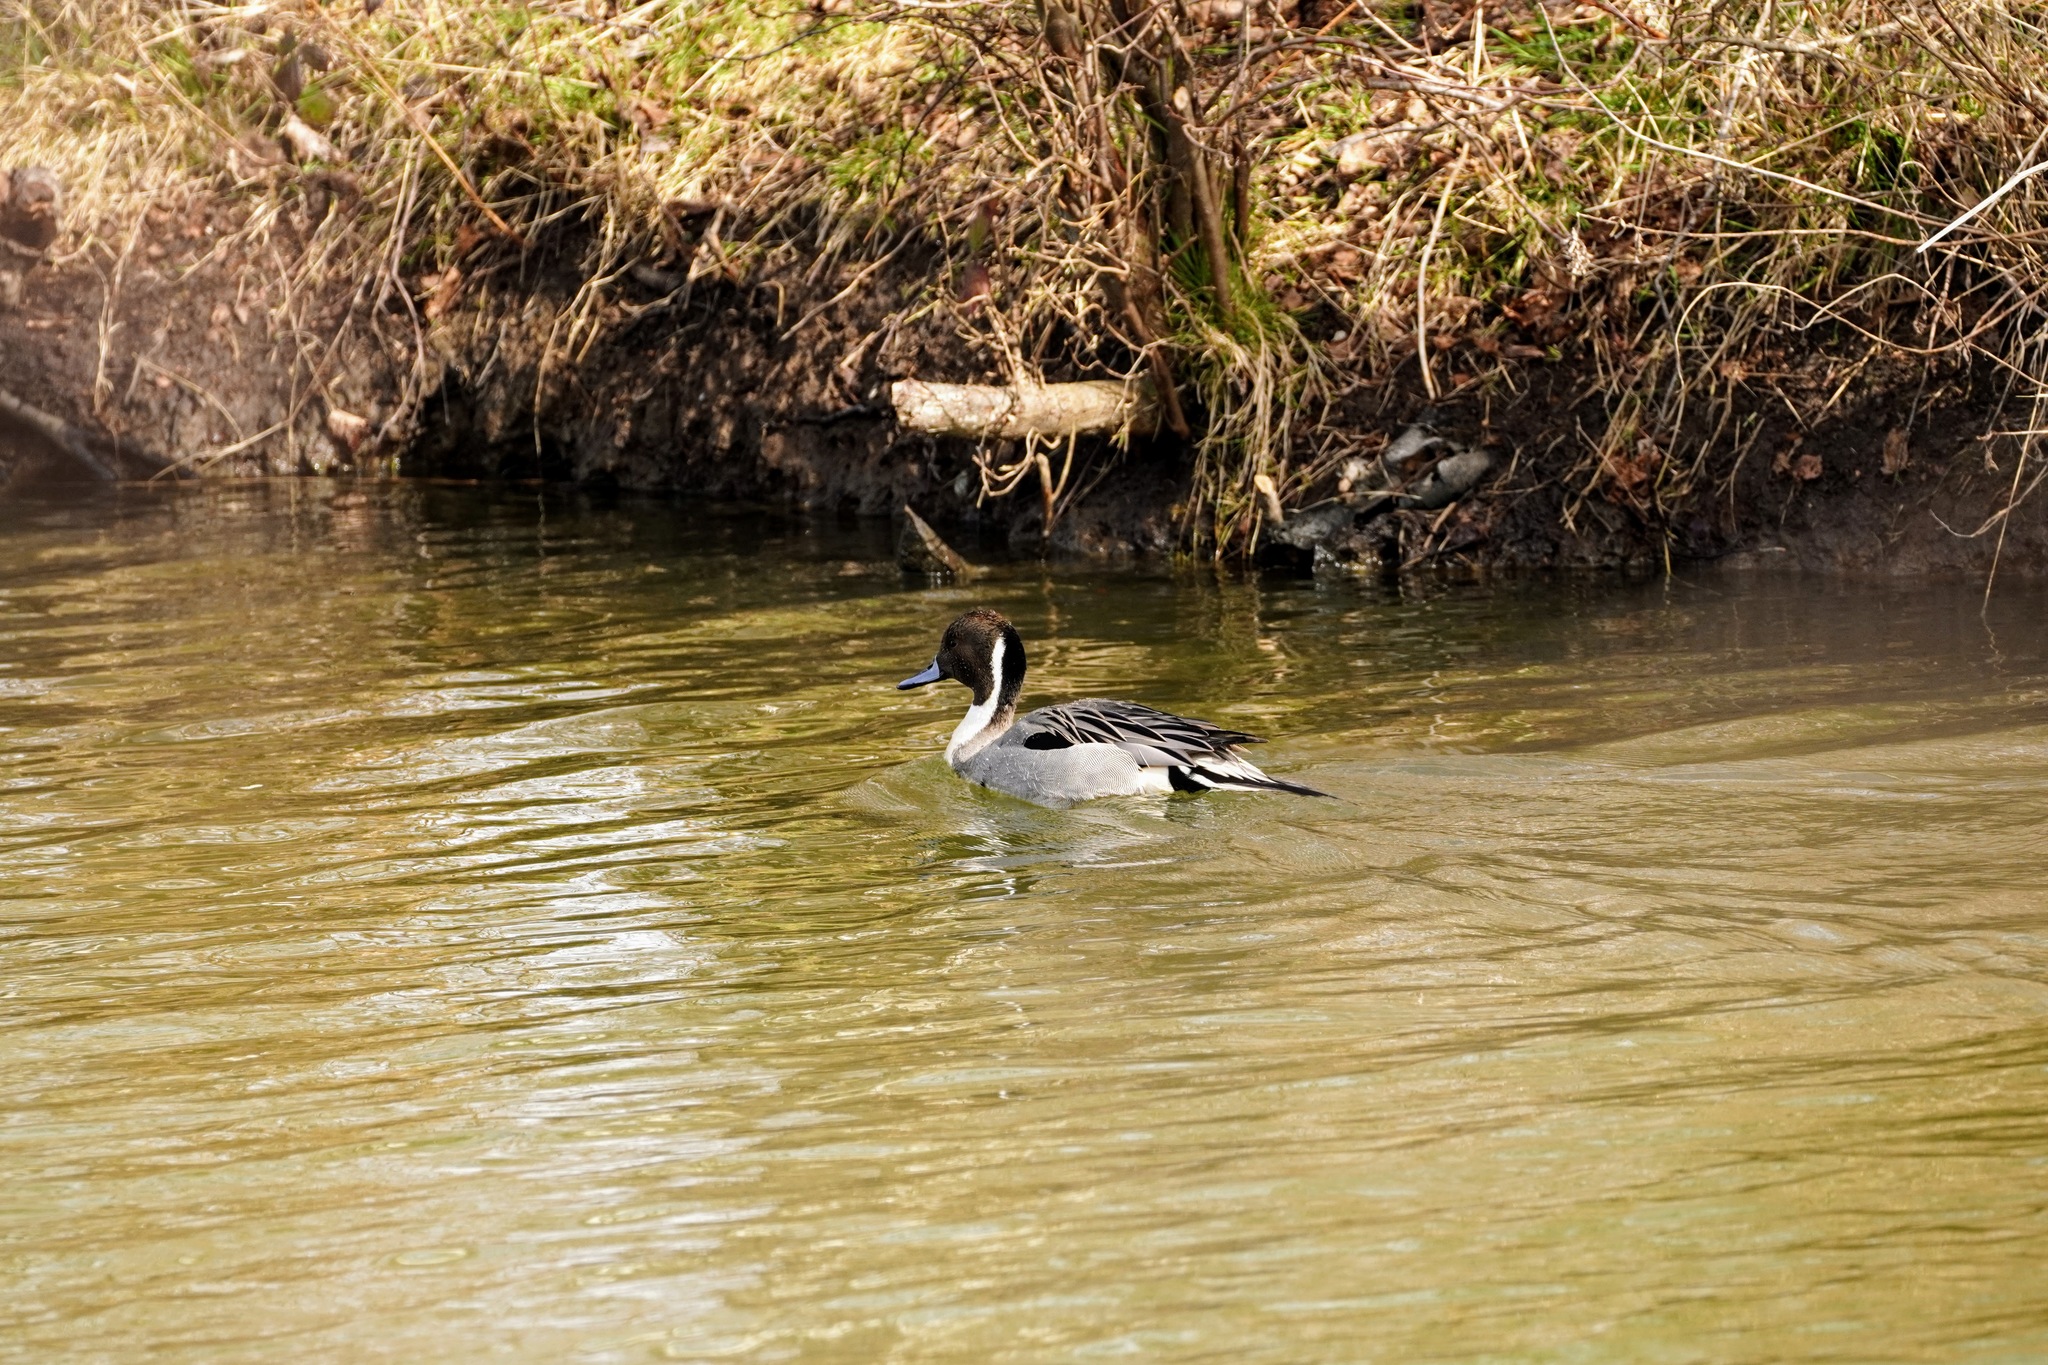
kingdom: Animalia
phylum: Chordata
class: Aves
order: Anseriformes
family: Anatidae
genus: Anas
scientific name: Anas acuta
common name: Northern pintail
